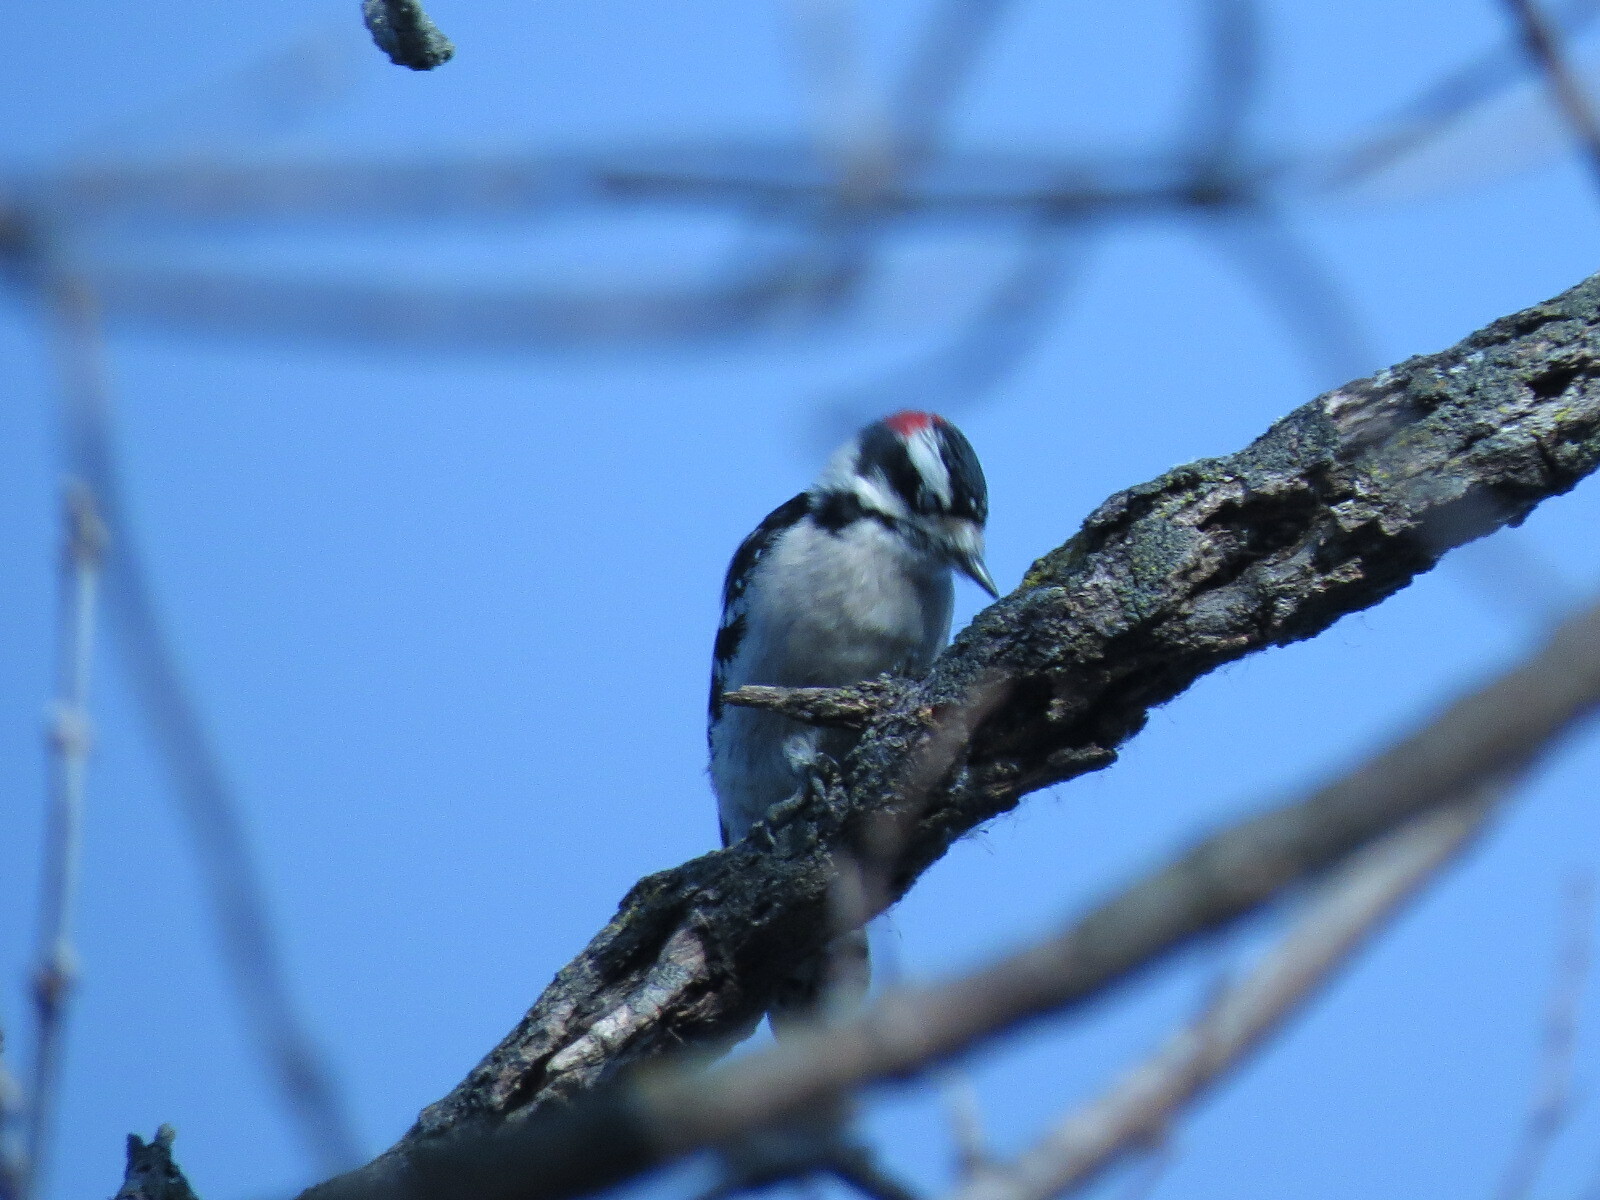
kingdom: Animalia
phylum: Chordata
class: Aves
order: Piciformes
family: Picidae
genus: Dryobates
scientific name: Dryobates pubescens
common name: Downy woodpecker
